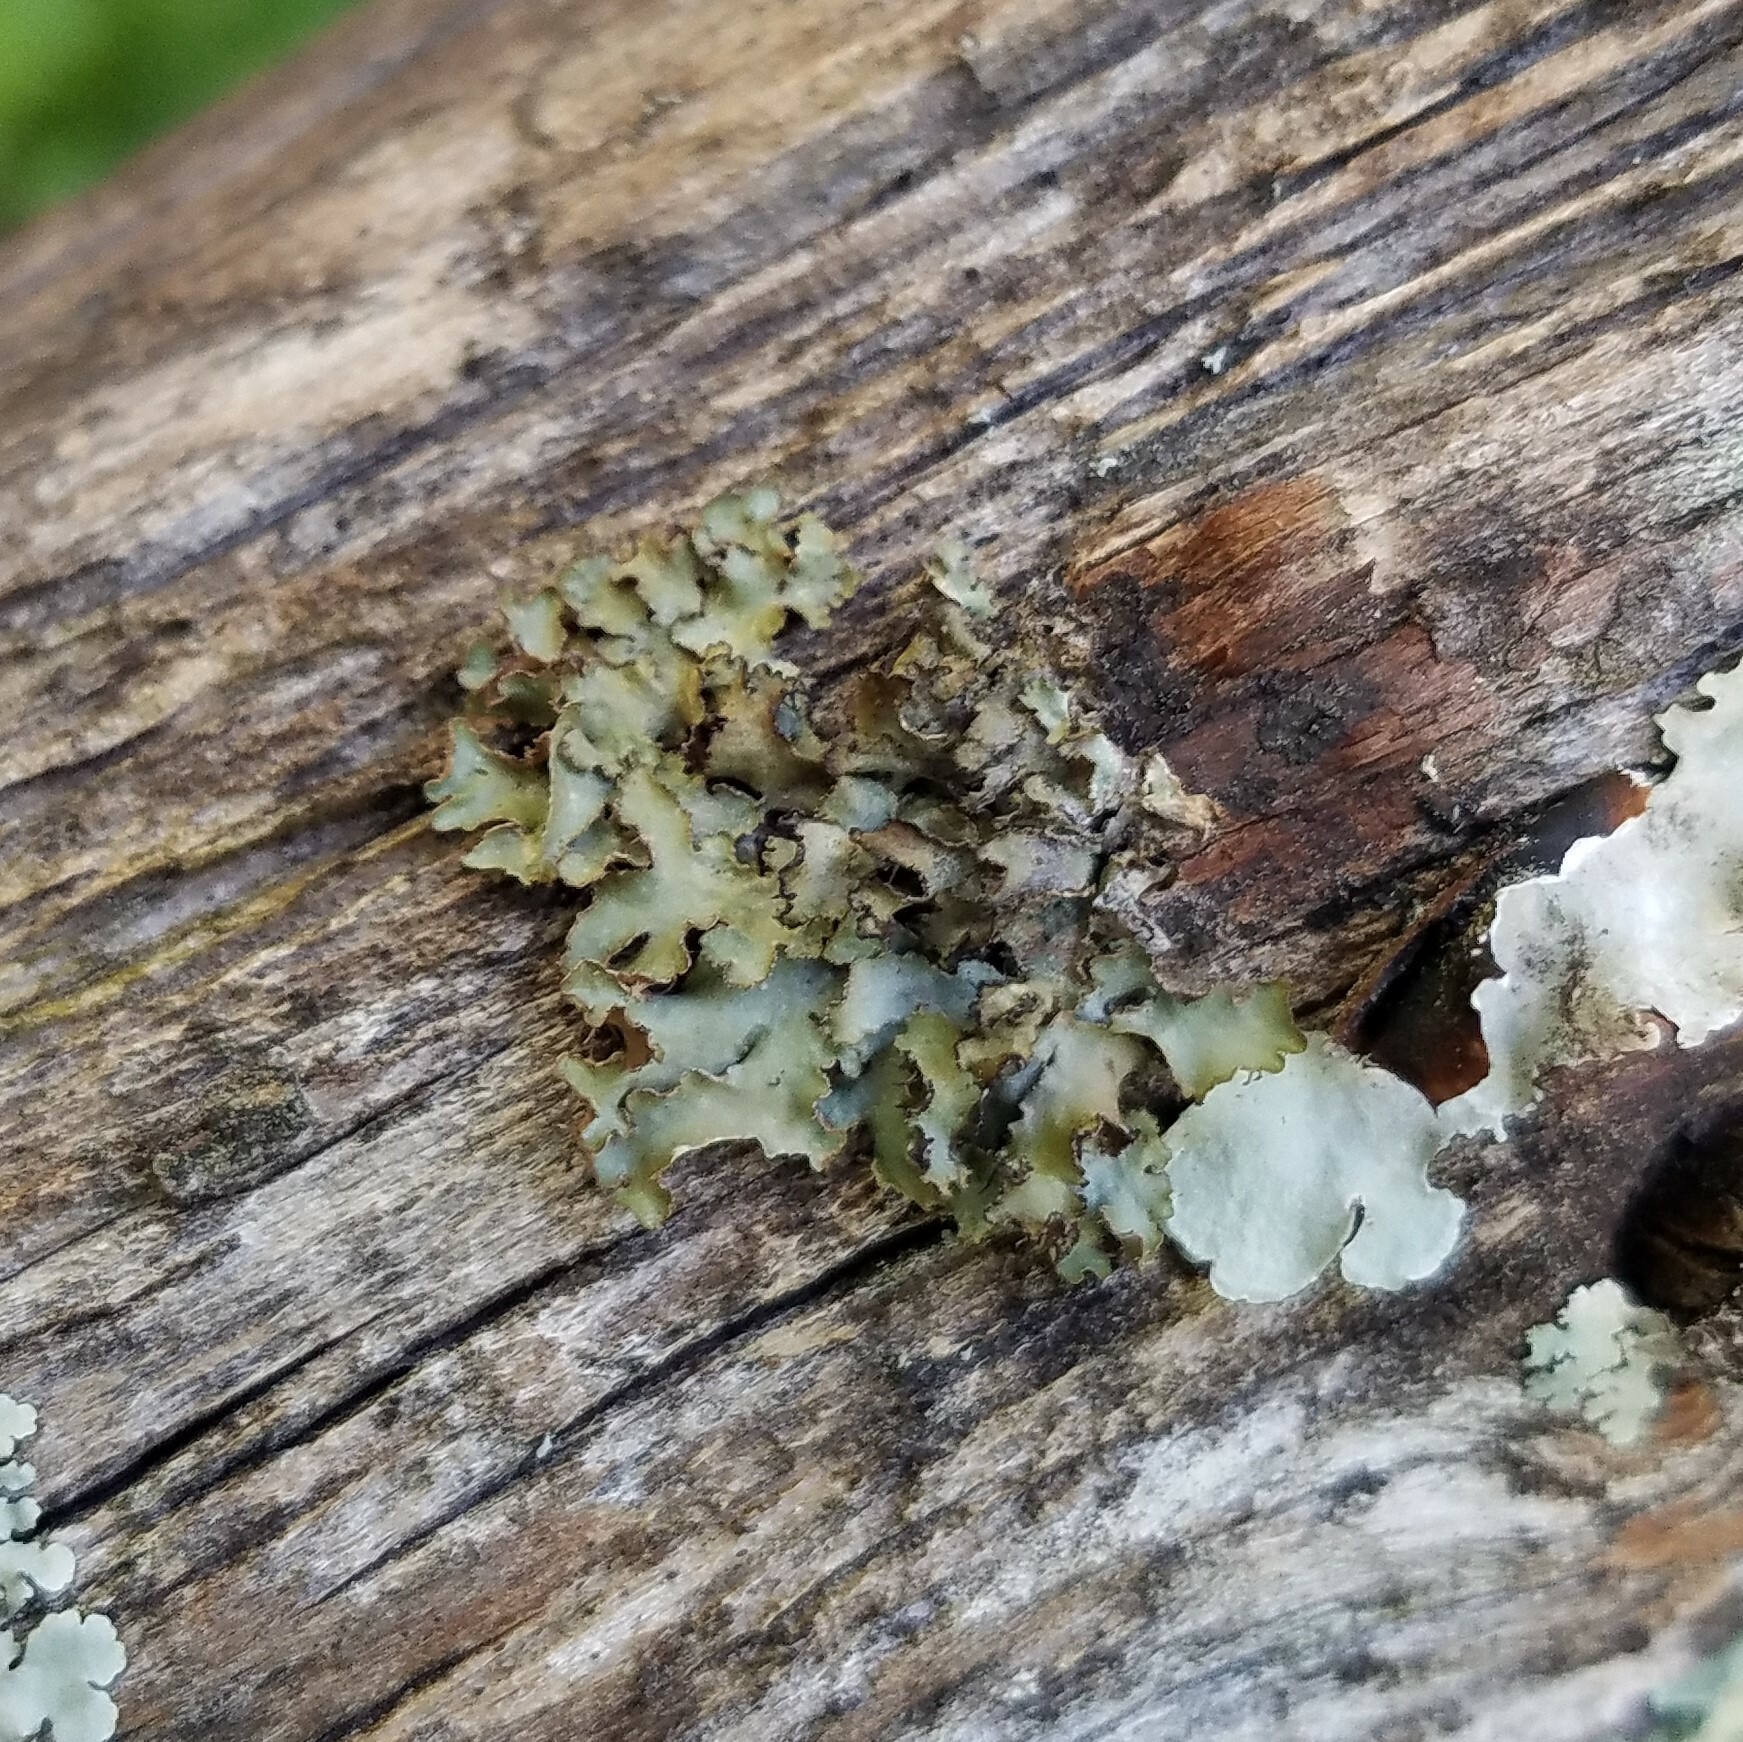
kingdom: Fungi
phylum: Ascomycota
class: Lecanoromycetes
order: Lecanorales
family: Parmeliaceae
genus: Tuckermannopsis
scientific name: Tuckermannopsis ciliaris
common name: Ciliate wrinkle-lichen
